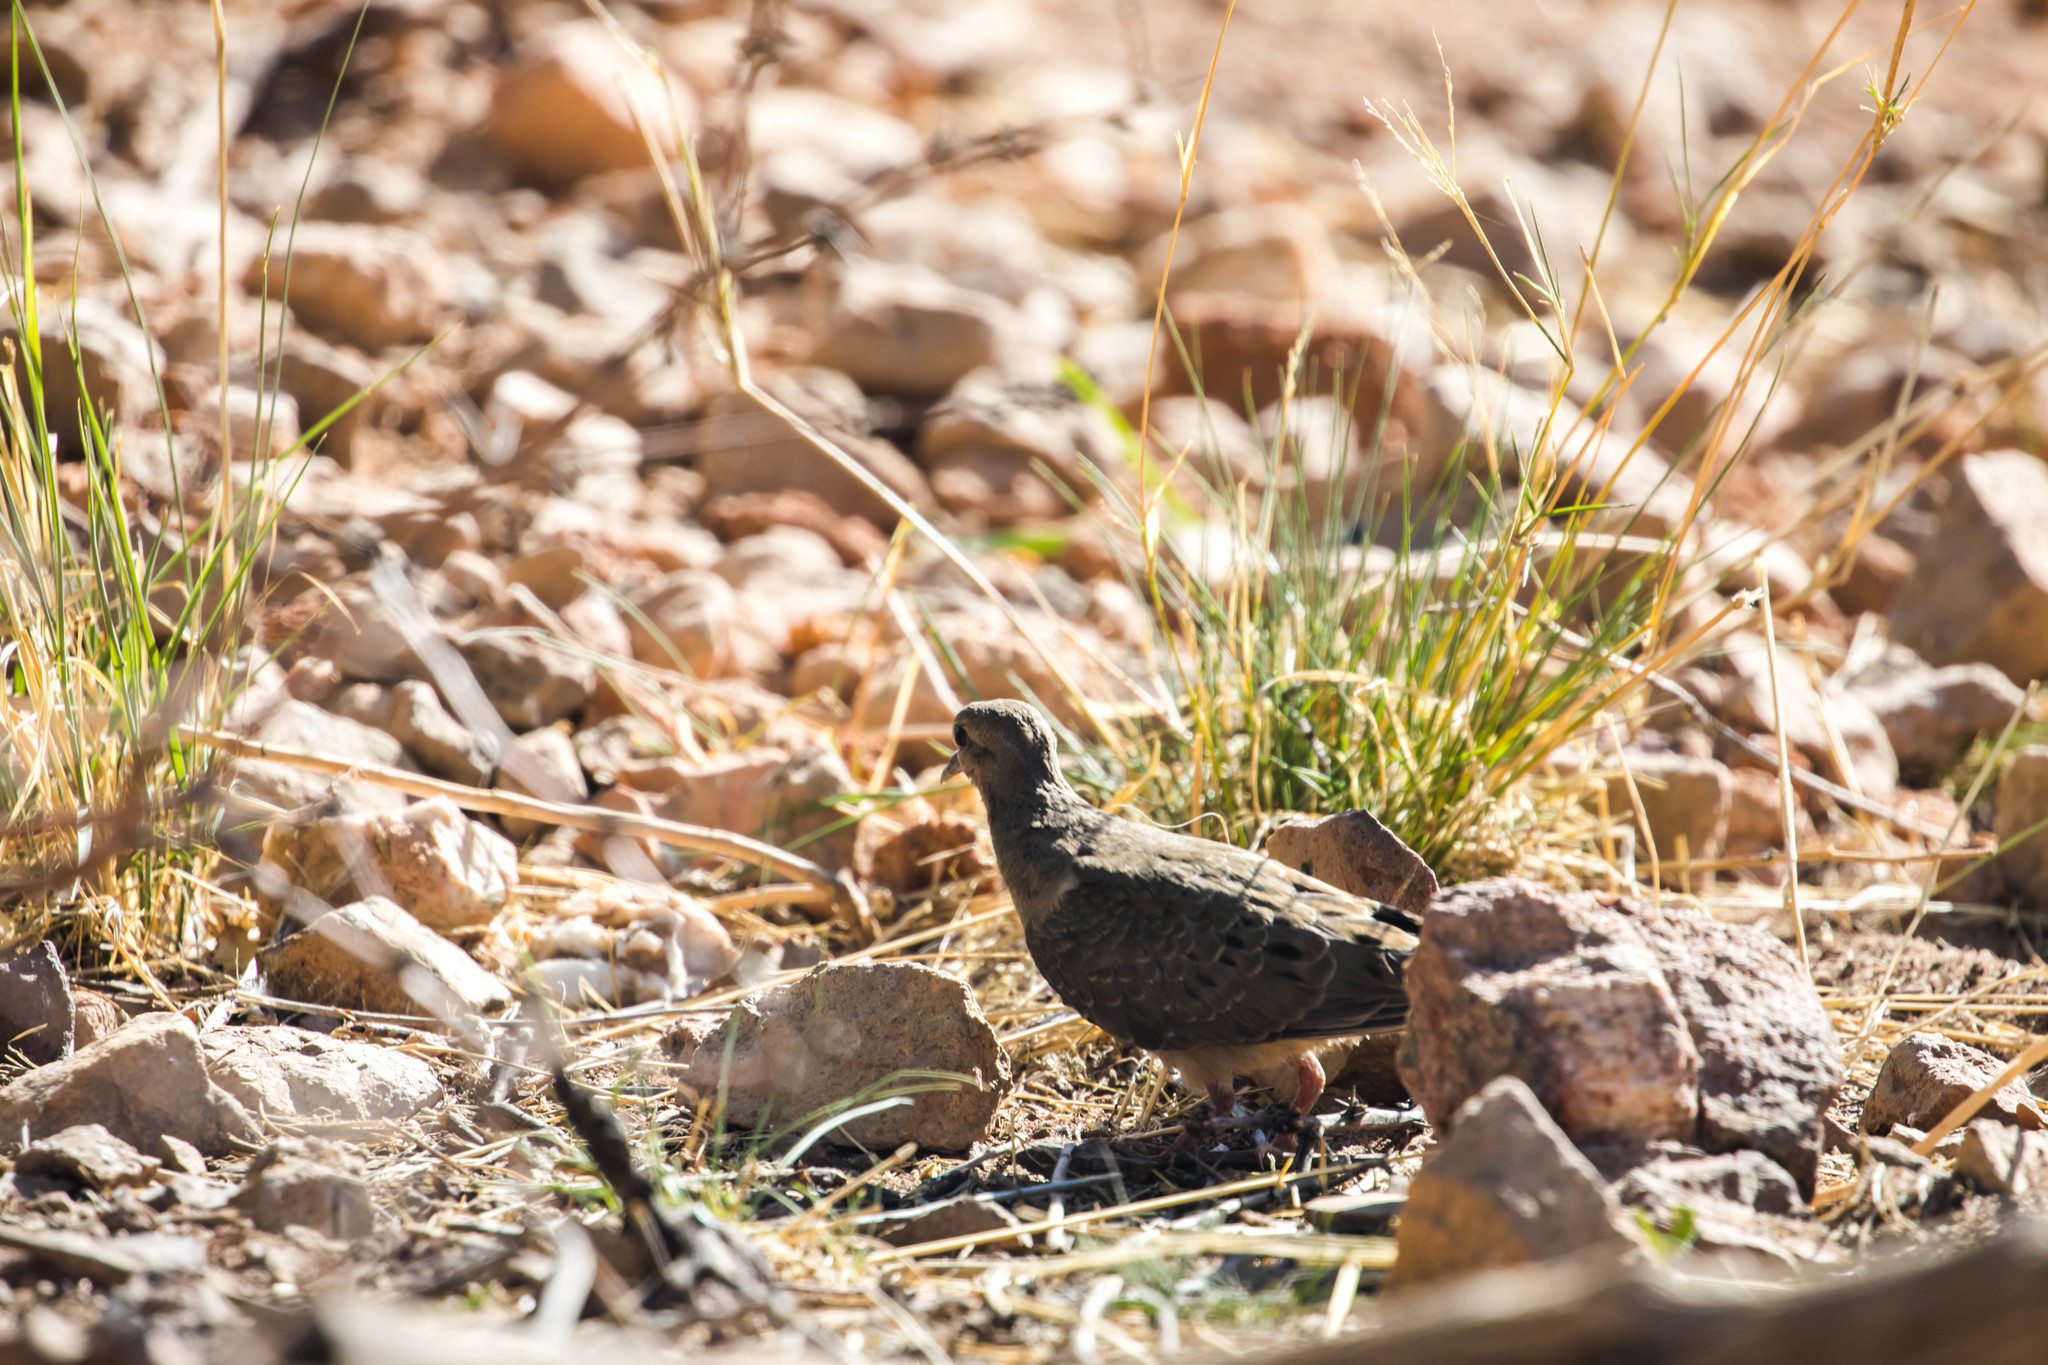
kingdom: Animalia
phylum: Chordata
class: Aves
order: Columbiformes
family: Columbidae
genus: Zenaida
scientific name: Zenaida macroura
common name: Mourning dove
